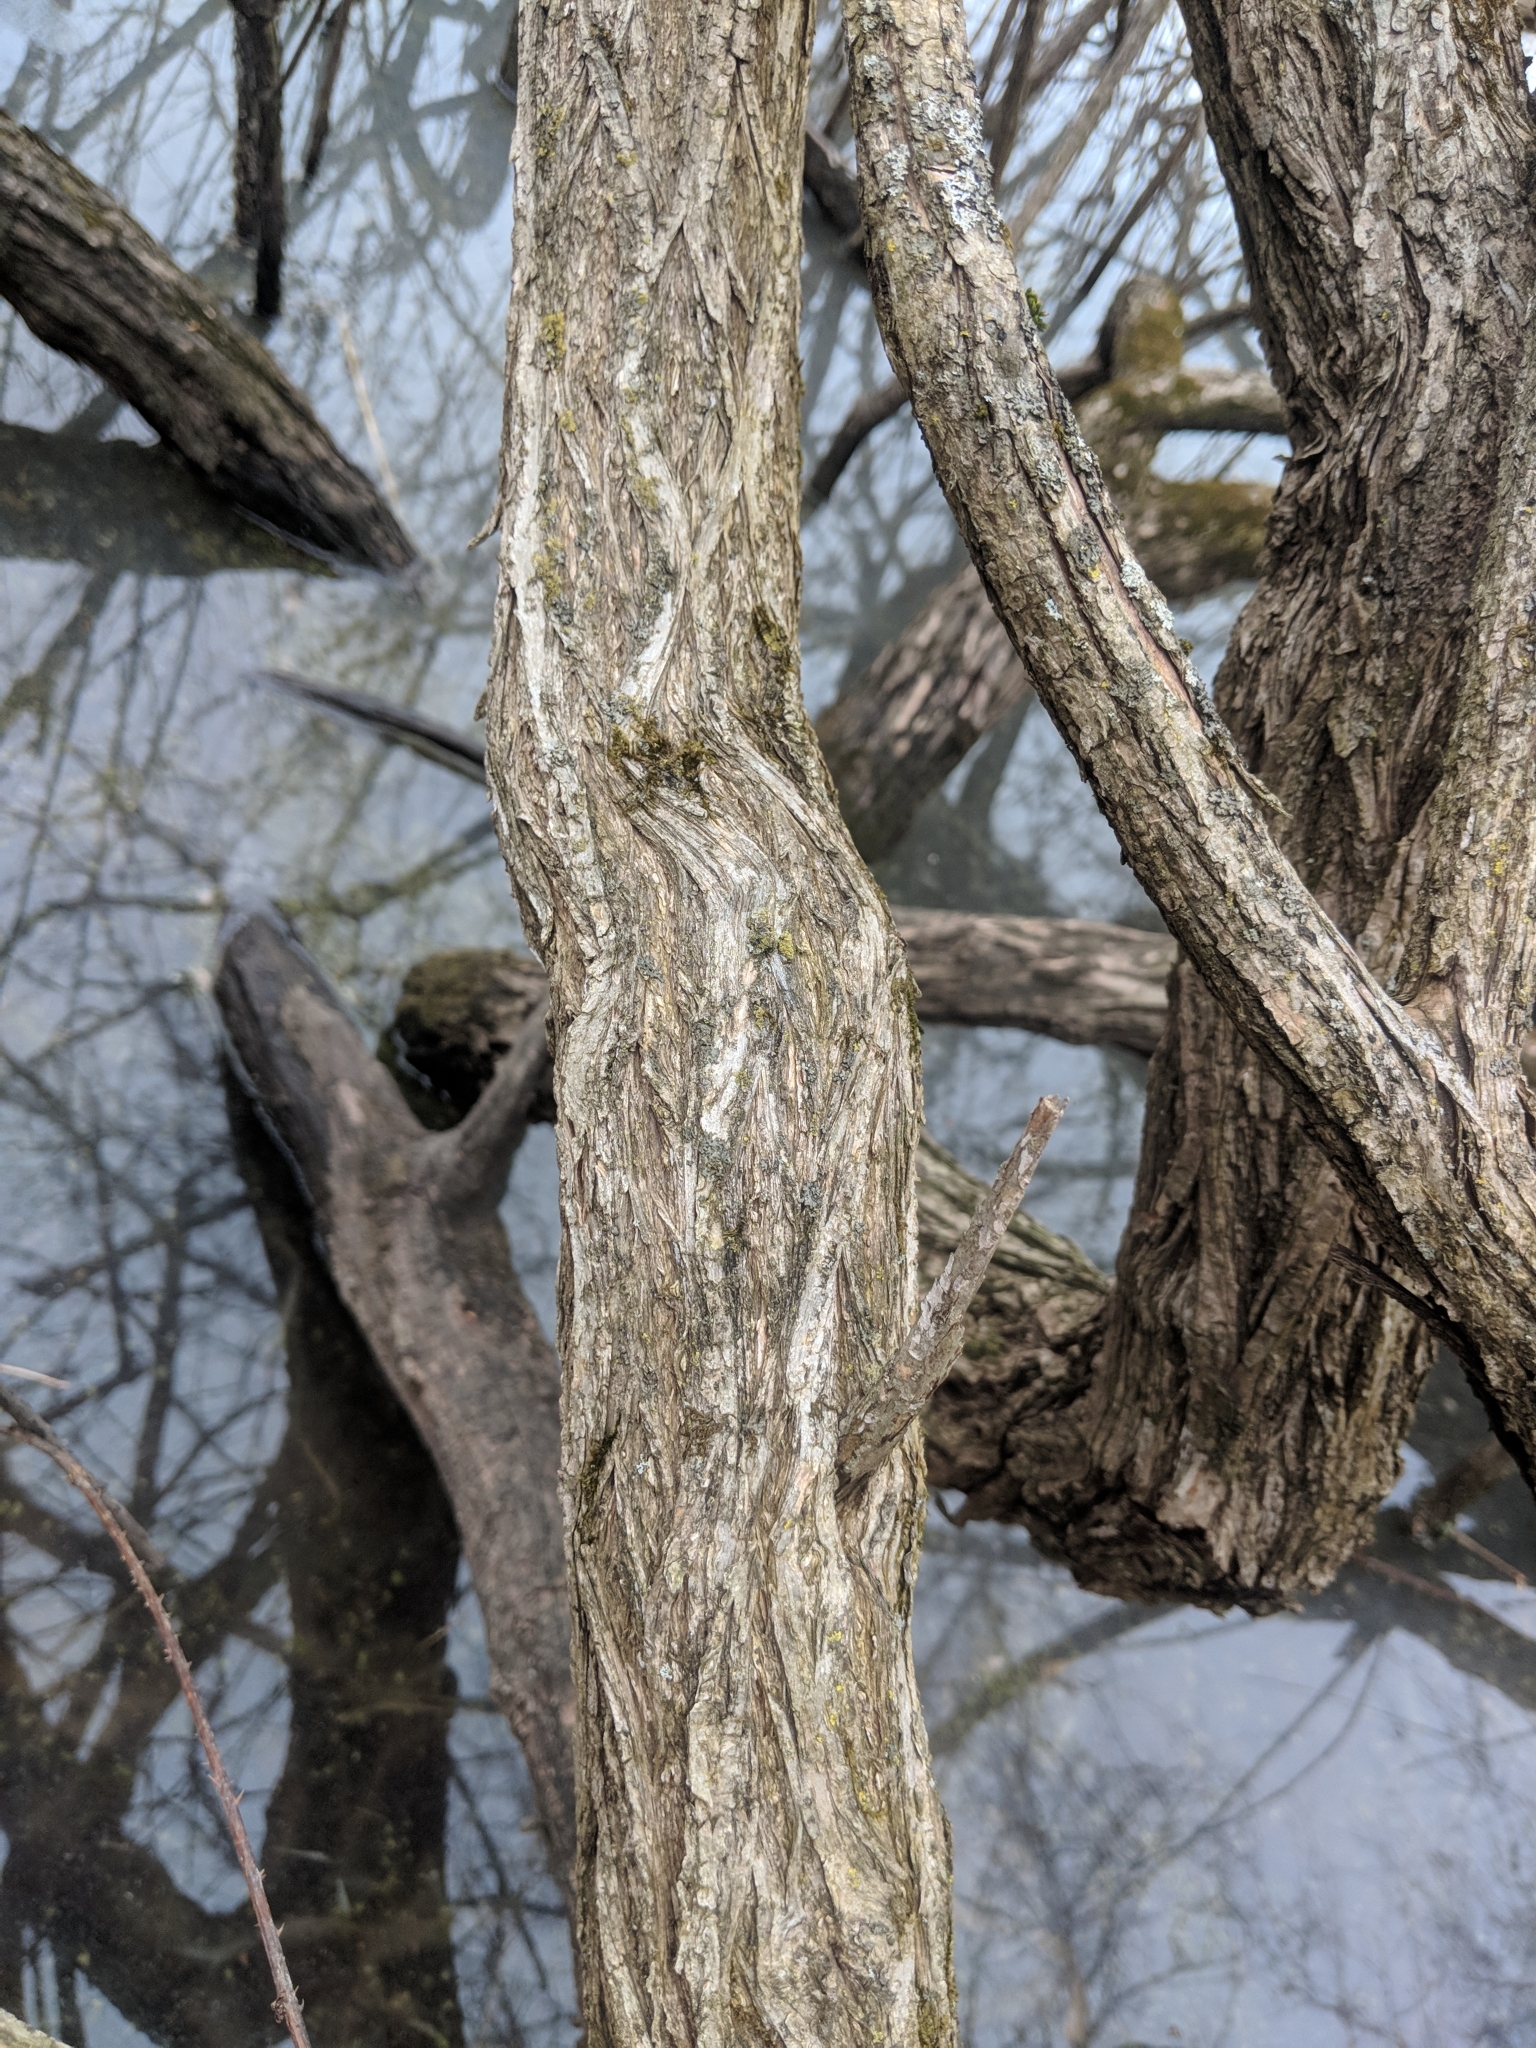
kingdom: Plantae
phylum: Tracheophyta
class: Magnoliopsida
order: Gentianales
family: Rubiaceae
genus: Cephalanthus
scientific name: Cephalanthus occidentalis
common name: Button-willow
